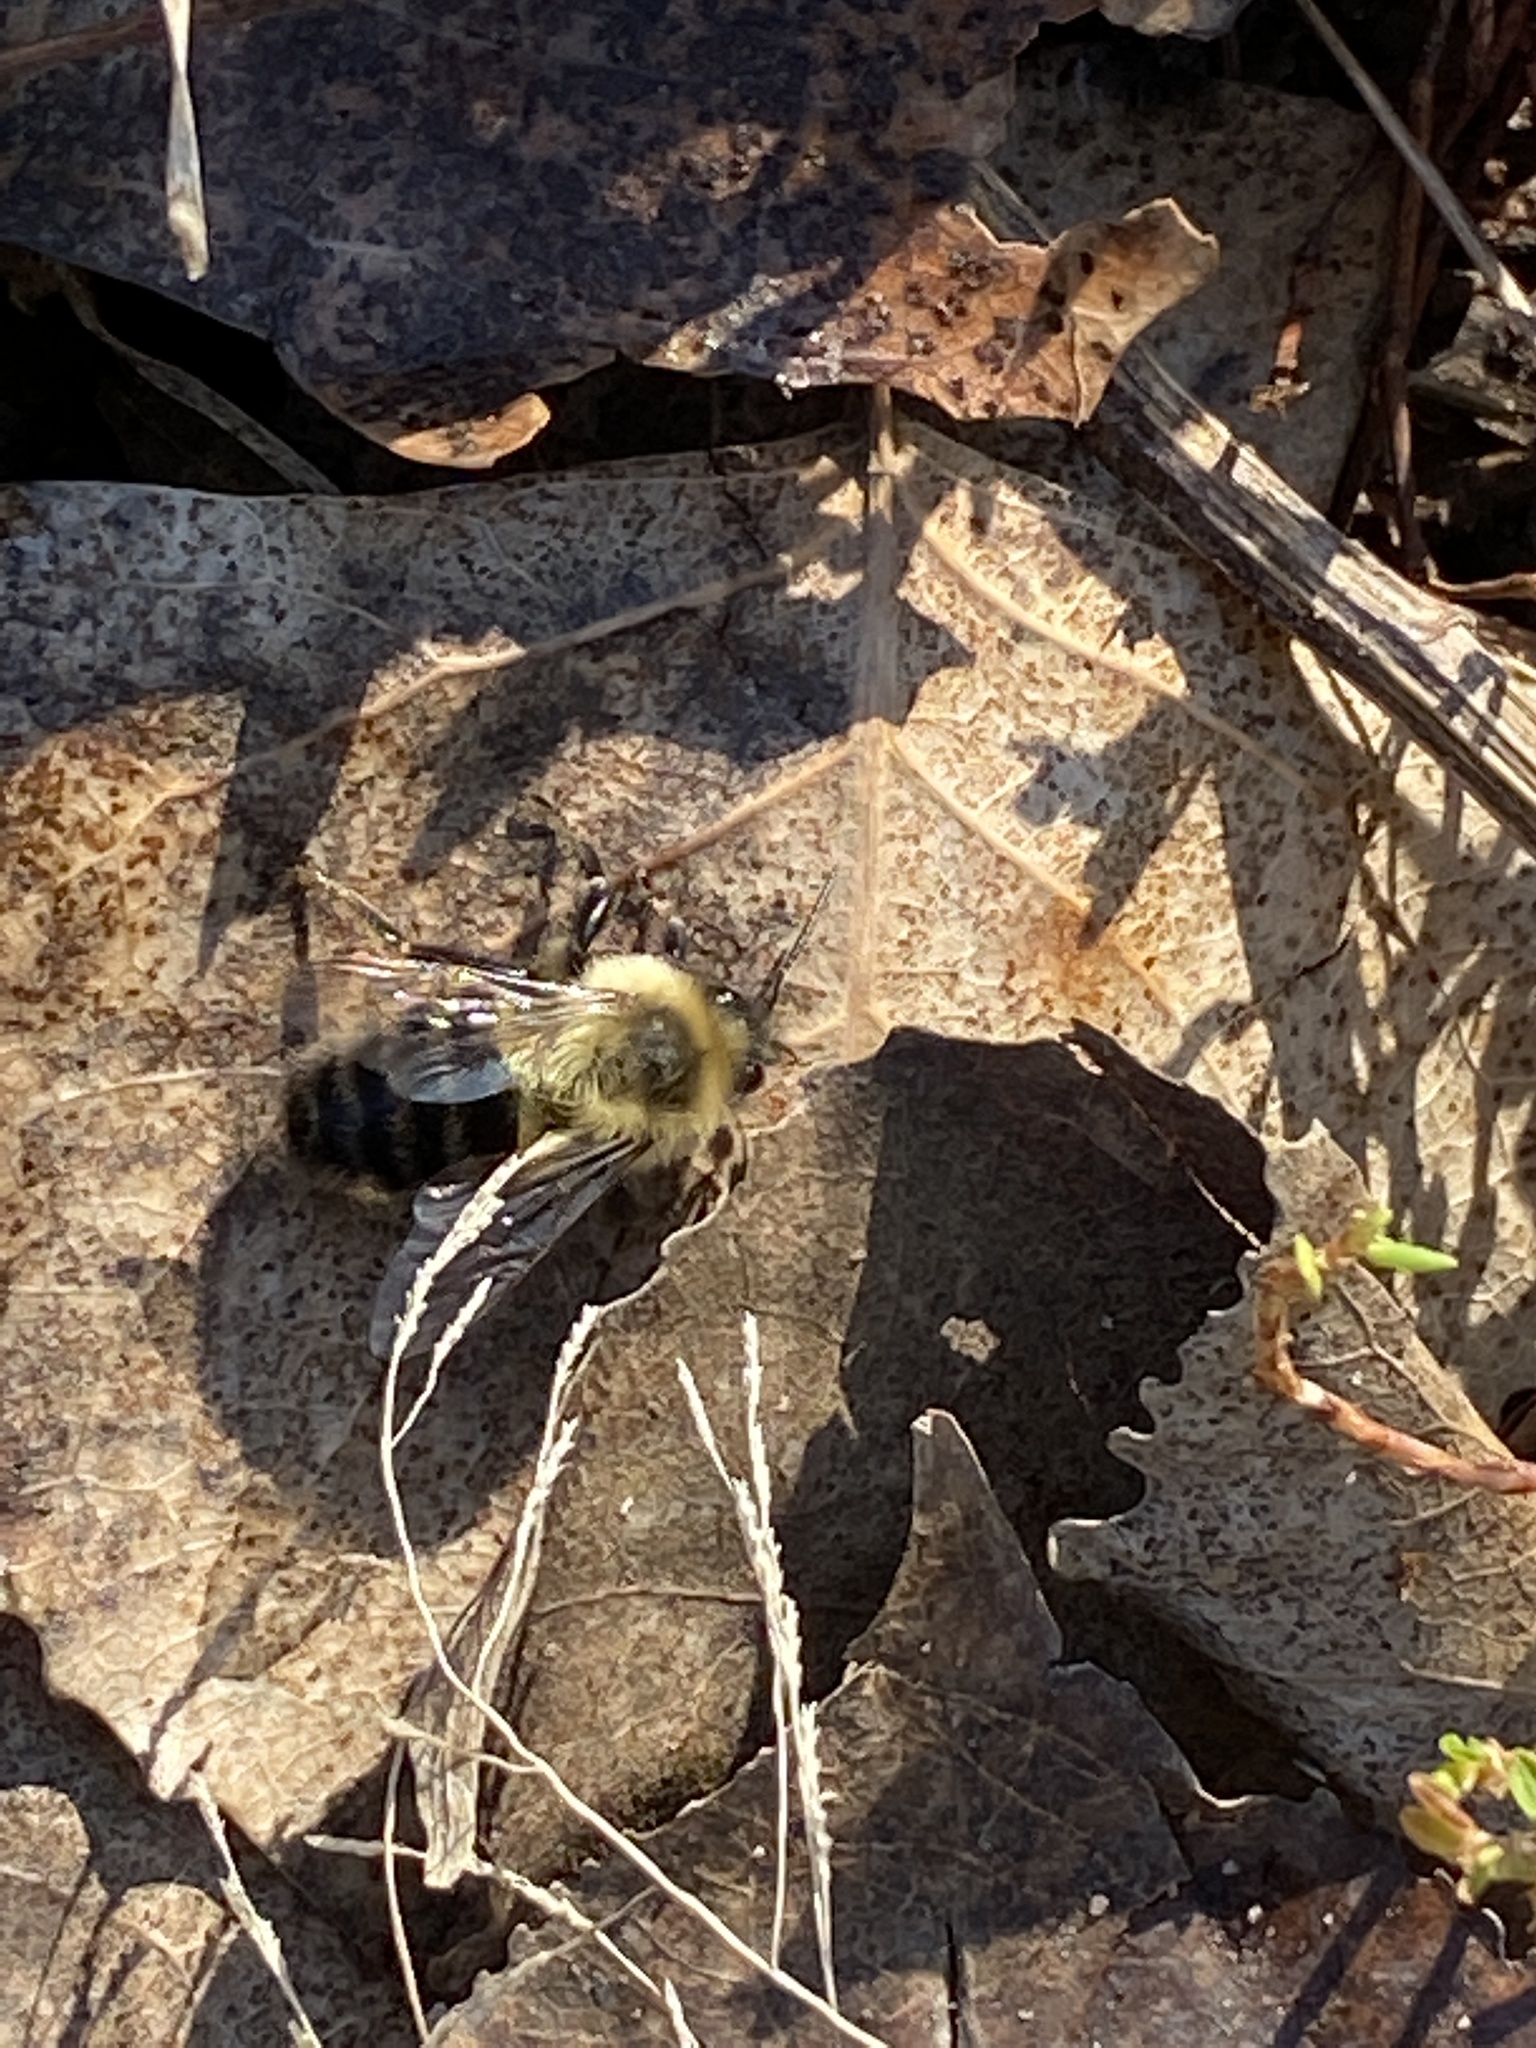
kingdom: Animalia
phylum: Arthropoda
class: Insecta
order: Hymenoptera
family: Apidae
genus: Bombus
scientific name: Bombus impatiens
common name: Common eastern bumble bee
